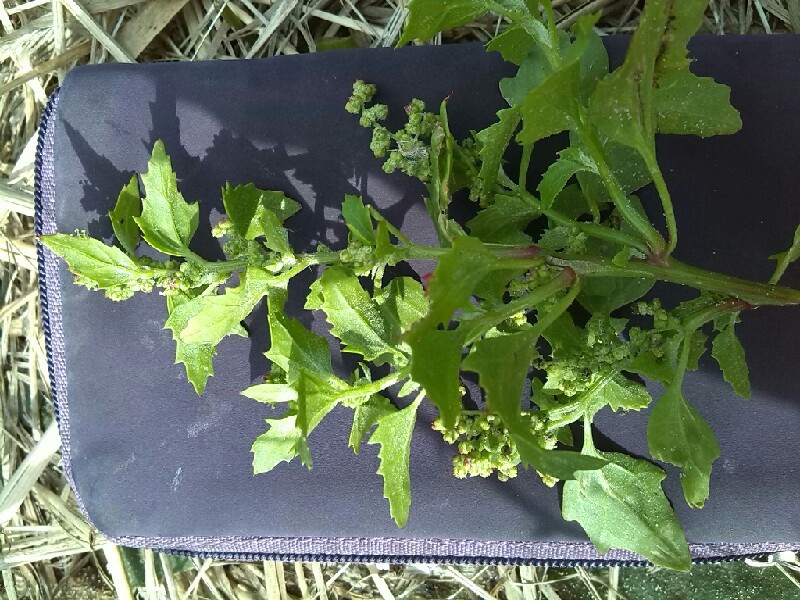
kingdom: Plantae
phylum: Tracheophyta
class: Magnoliopsida
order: Caryophyllales
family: Amaranthaceae
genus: Chenopodiastrum
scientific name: Chenopodiastrum murale
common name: Sowbane
